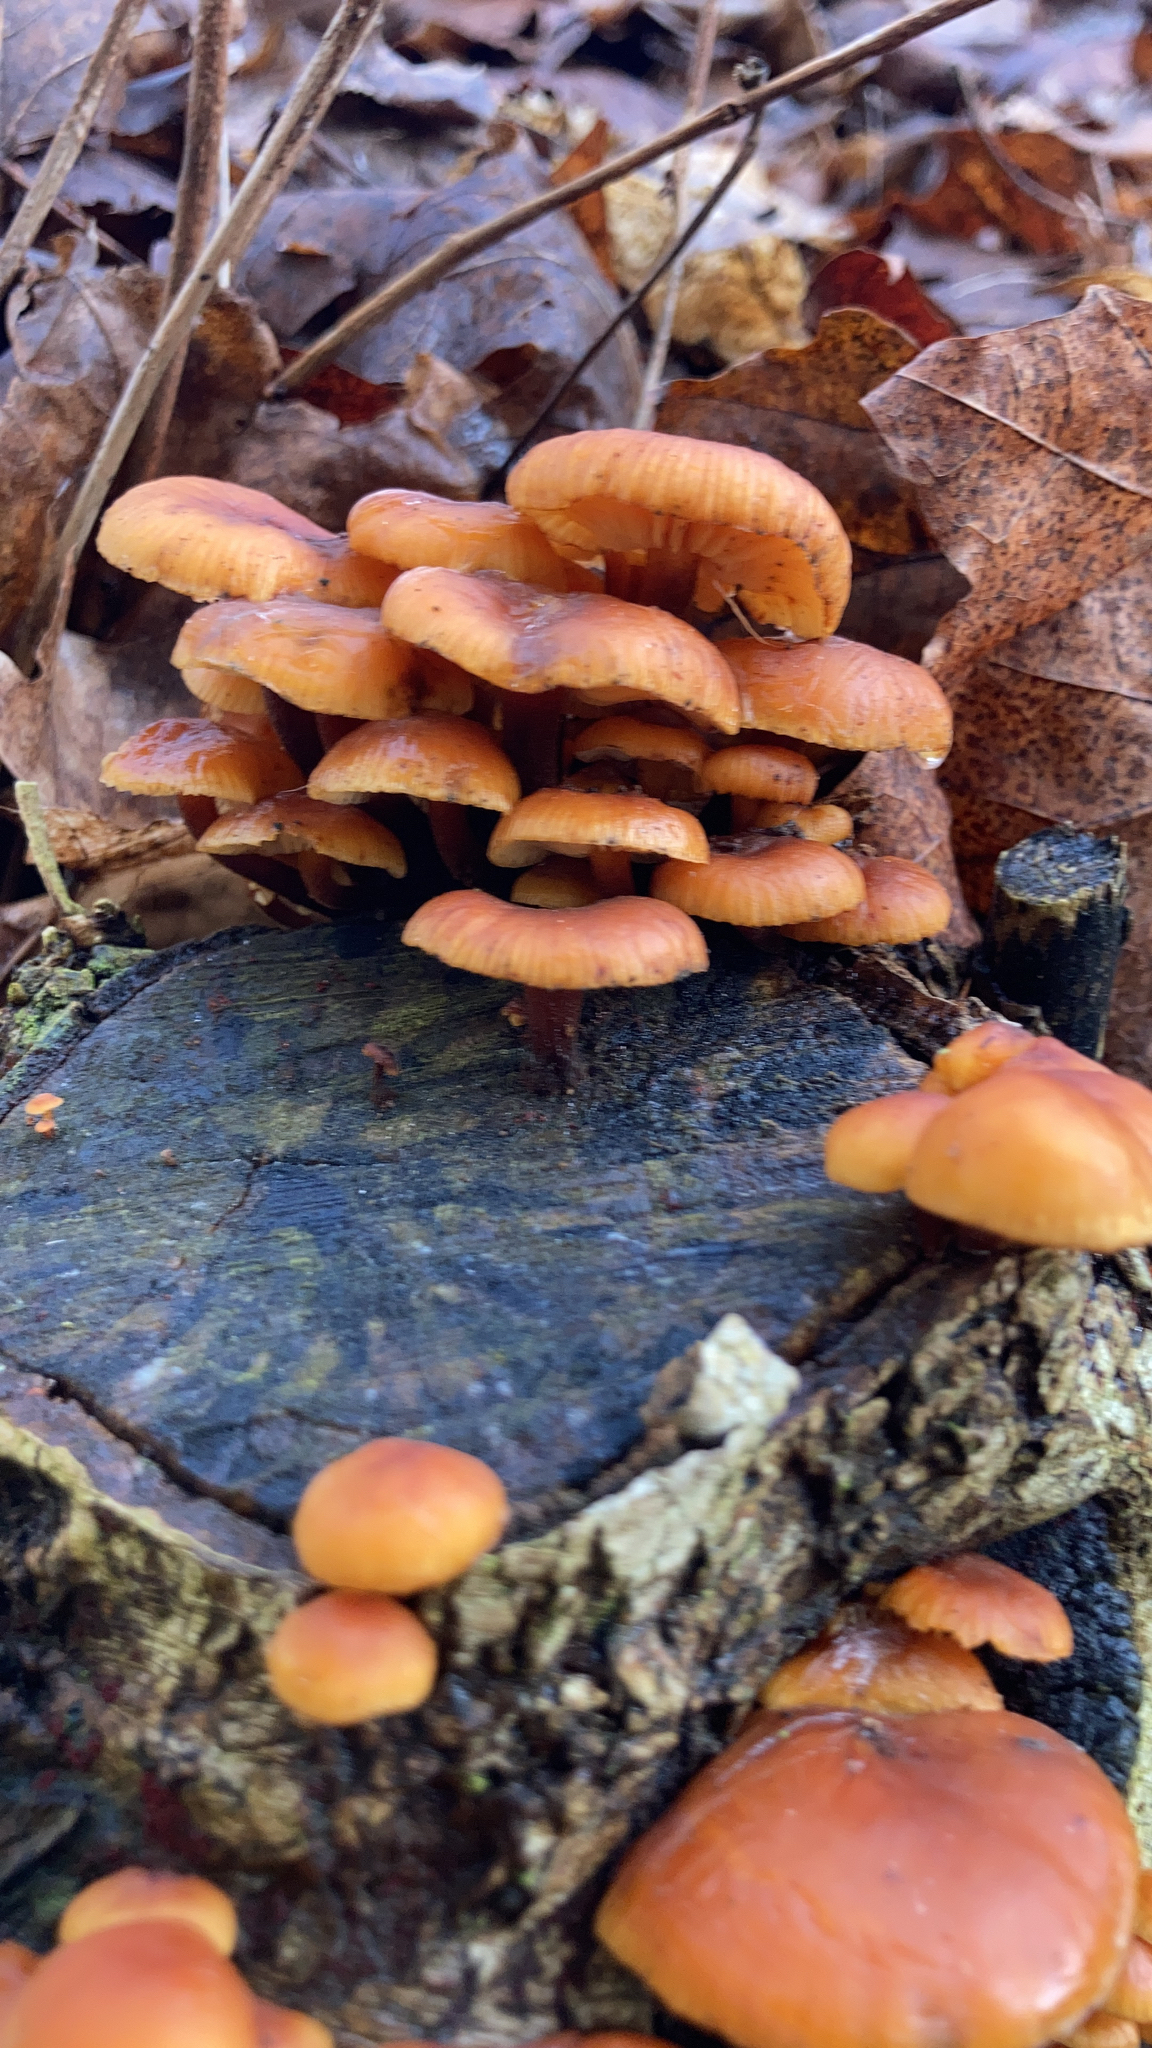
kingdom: Fungi
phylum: Basidiomycota
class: Agaricomycetes
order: Agaricales
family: Physalacriaceae
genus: Flammulina
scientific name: Flammulina
